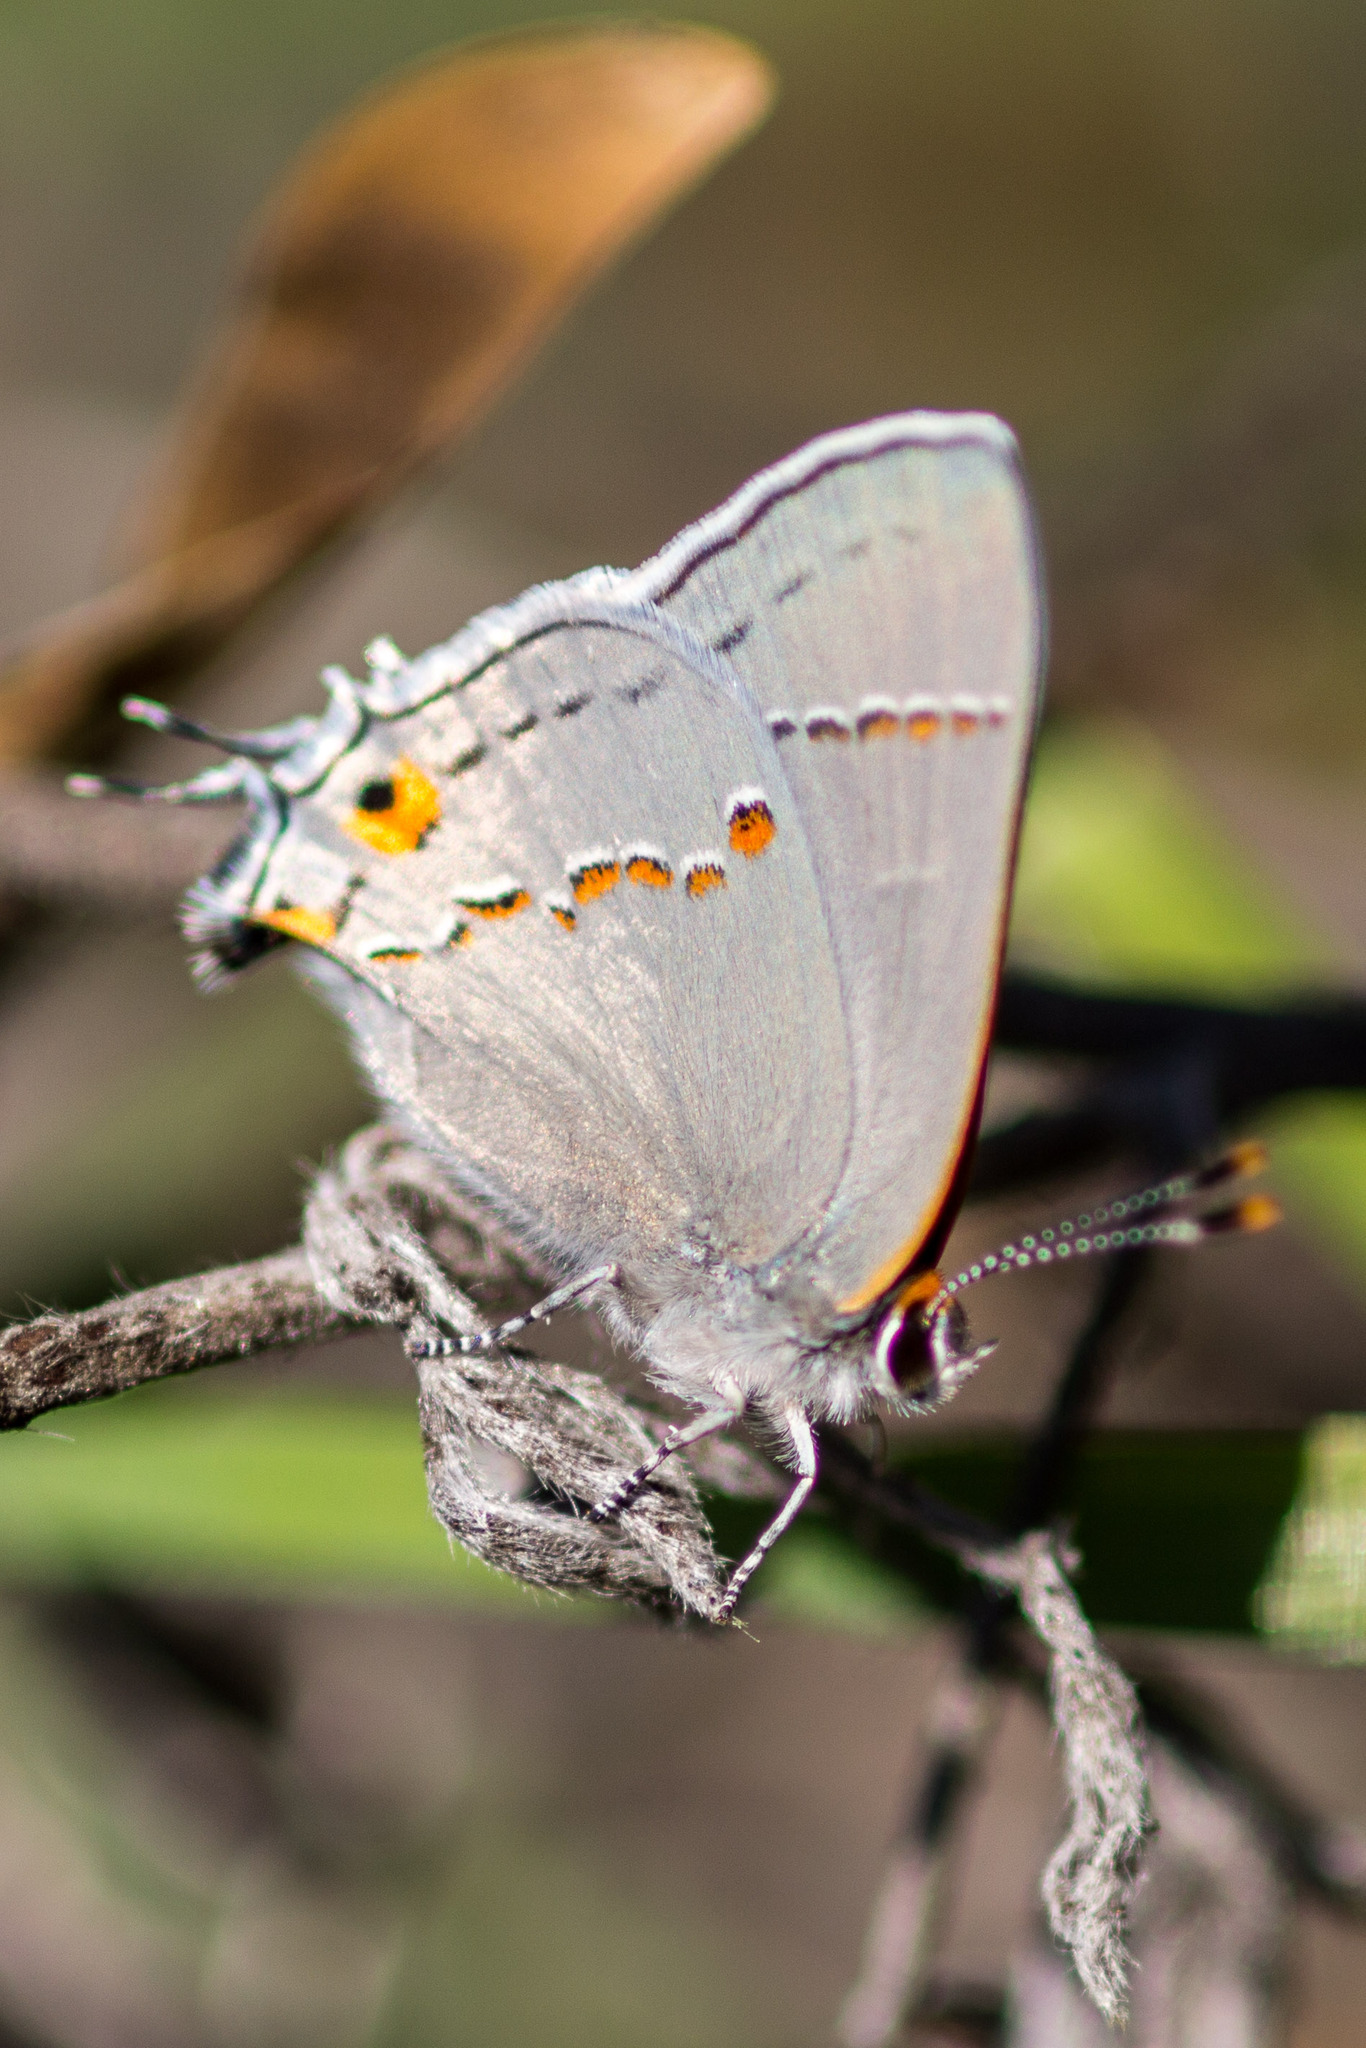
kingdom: Animalia
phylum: Arthropoda
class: Insecta
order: Lepidoptera
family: Lycaenidae
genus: Strymon
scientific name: Strymon melinus
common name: Gray hairstreak
